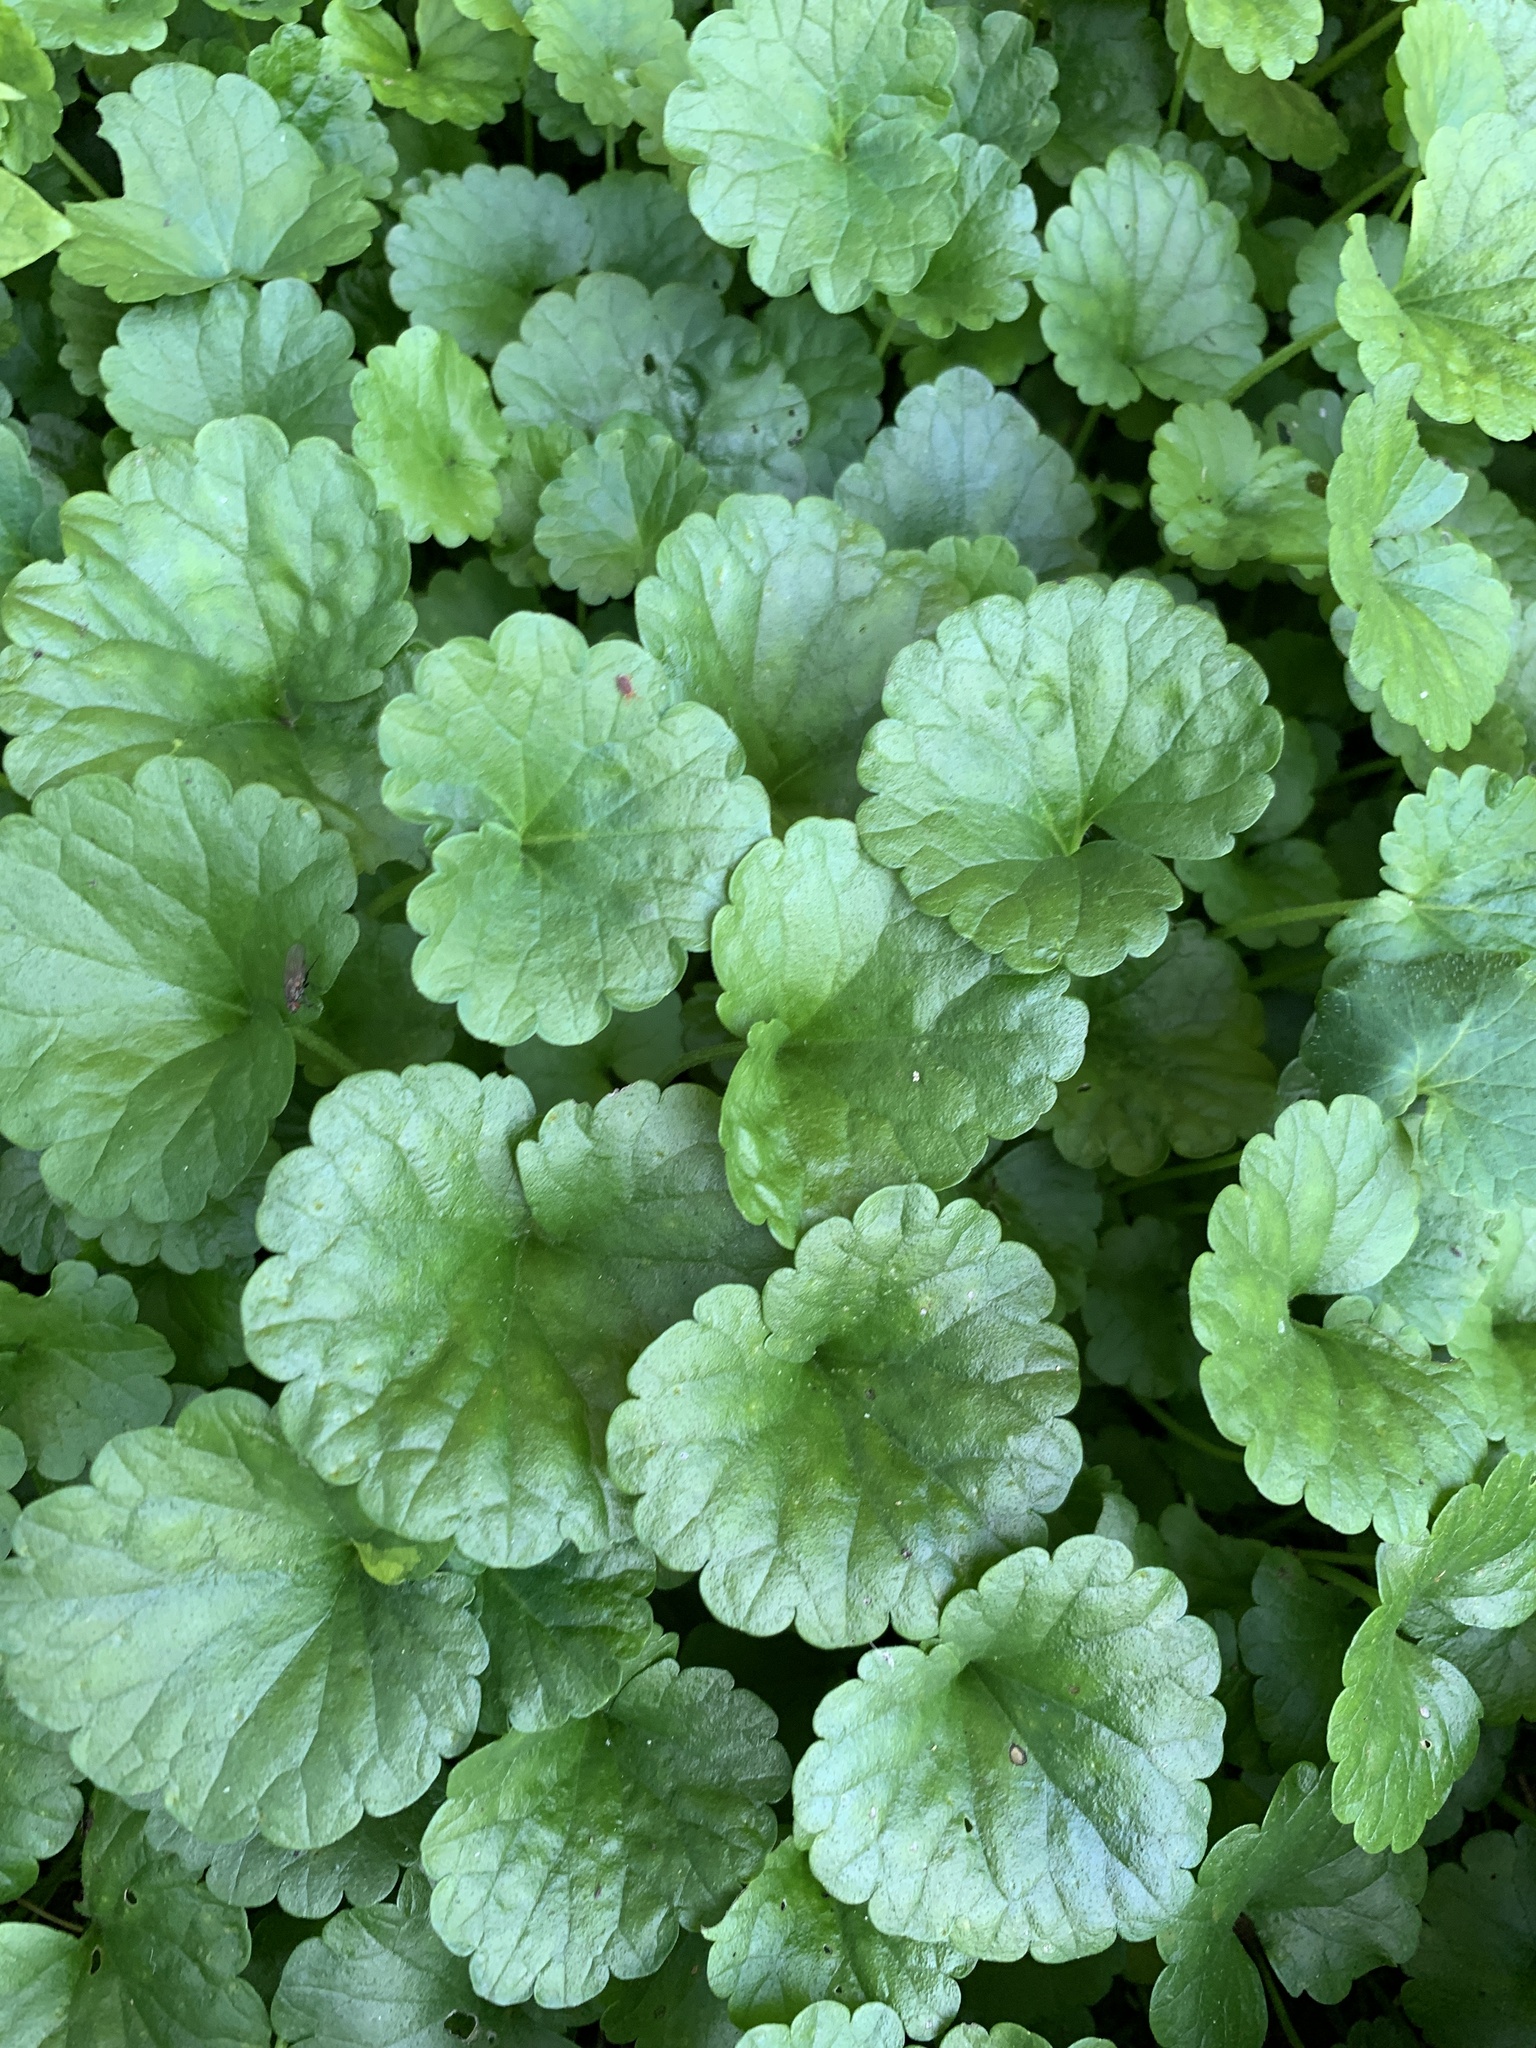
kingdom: Plantae
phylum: Tracheophyta
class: Magnoliopsida
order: Lamiales
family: Lamiaceae
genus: Glechoma
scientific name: Glechoma hederacea
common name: Ground ivy
